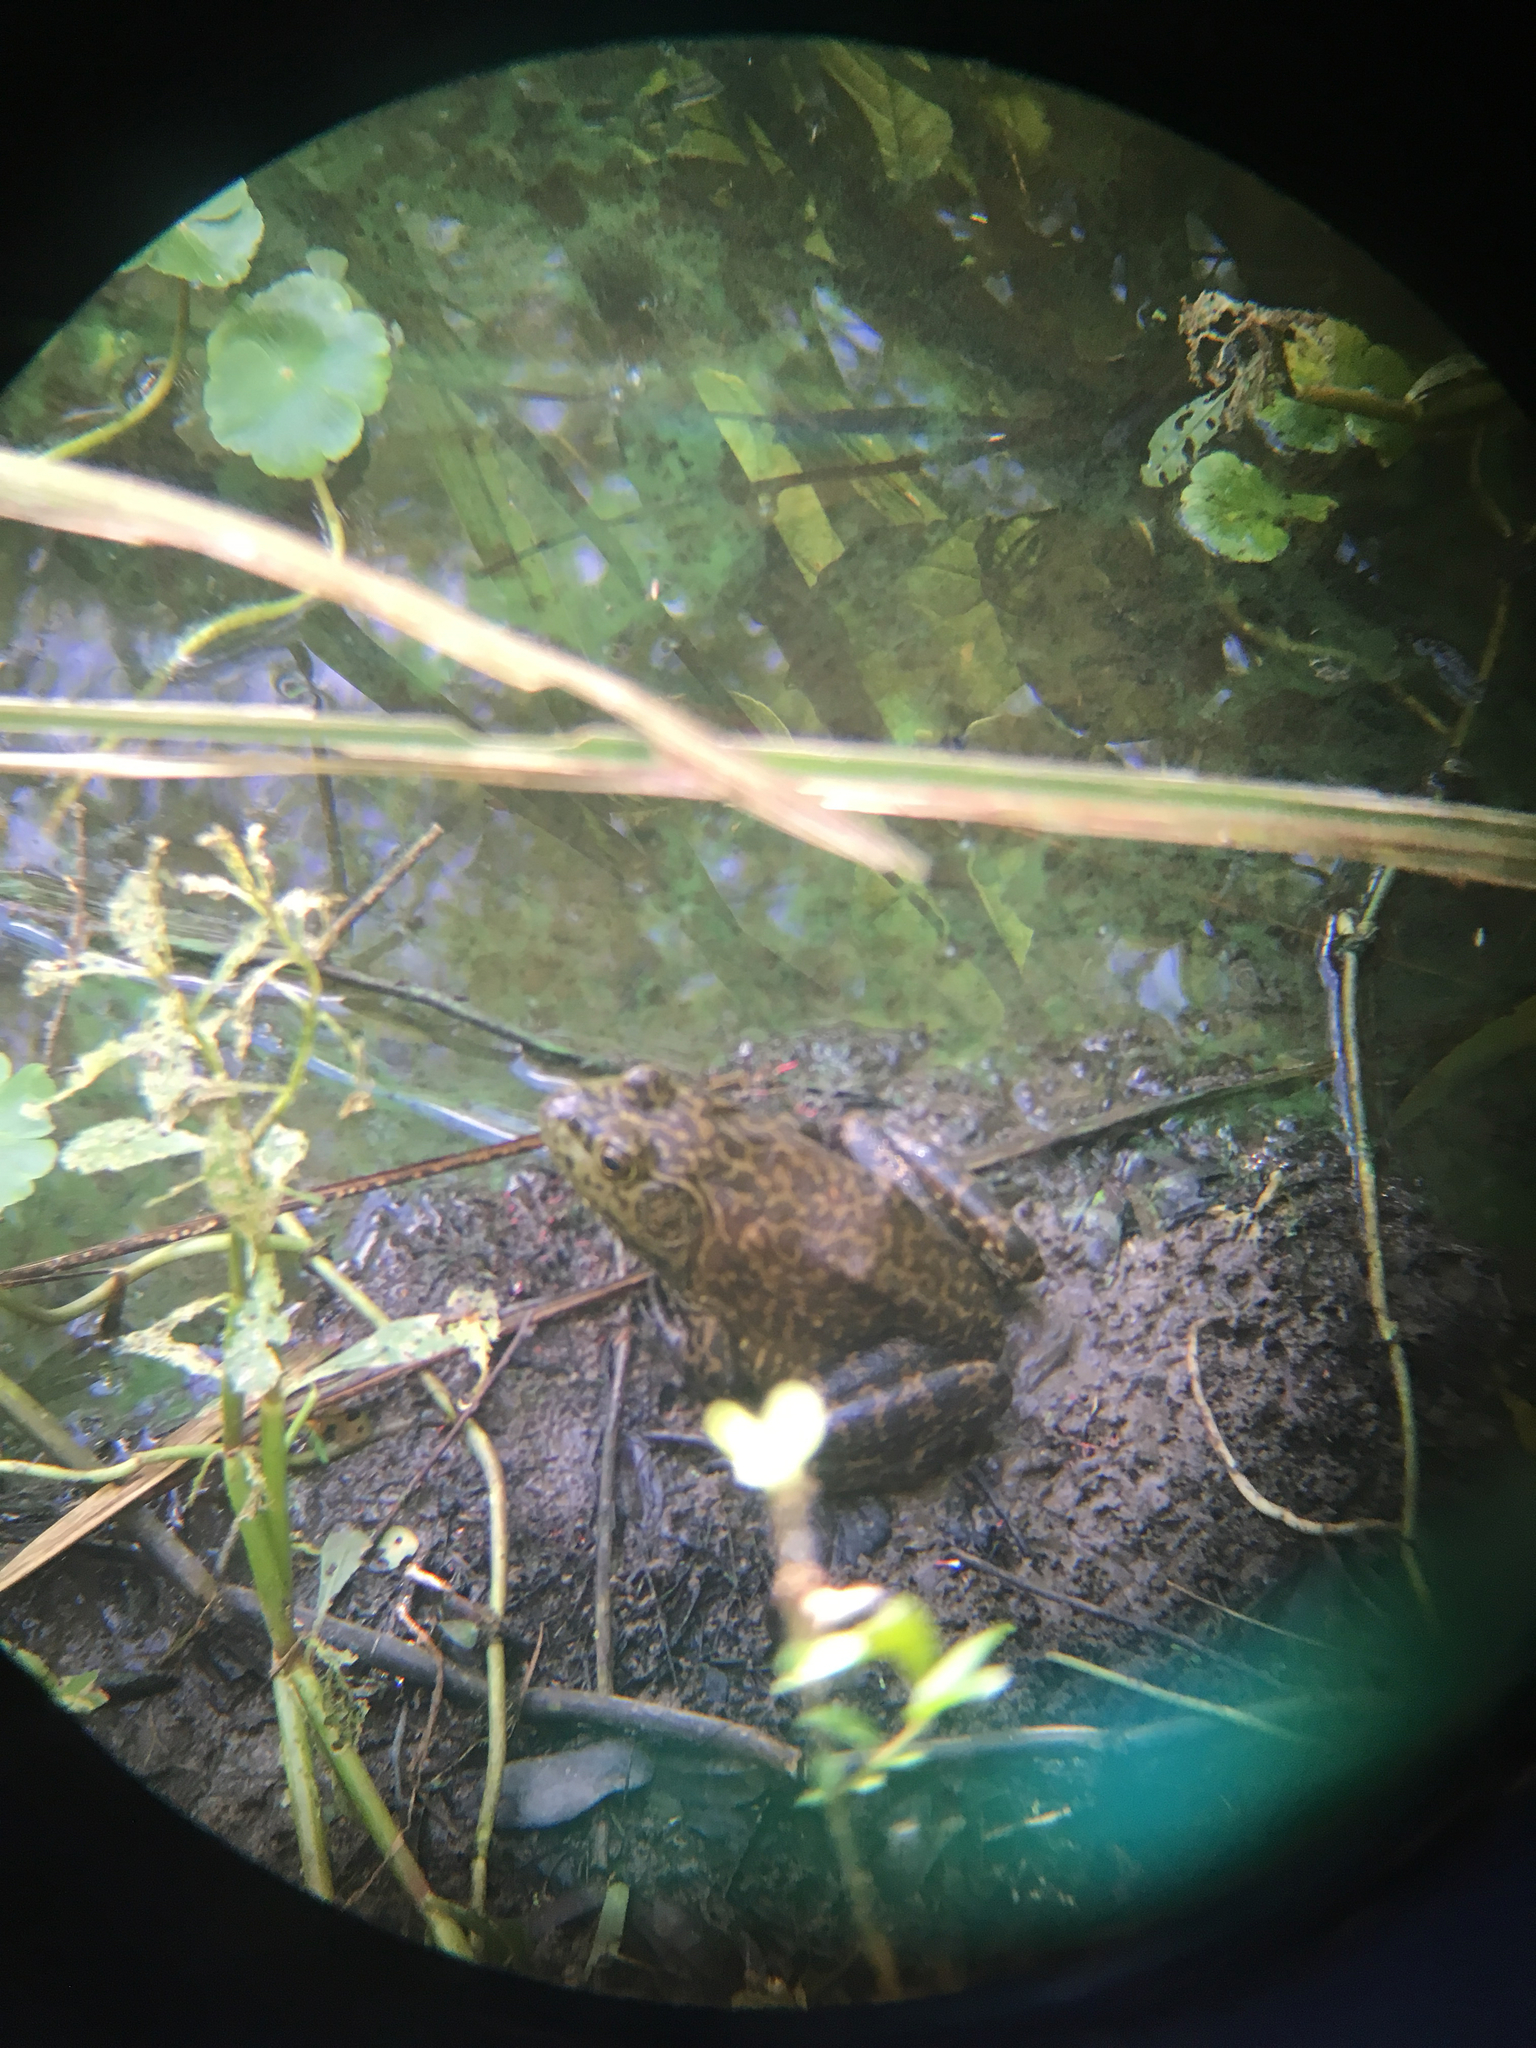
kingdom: Animalia
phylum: Chordata
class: Amphibia
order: Anura
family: Ranidae
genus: Lithobates
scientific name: Lithobates catesbeianus
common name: American bullfrog
